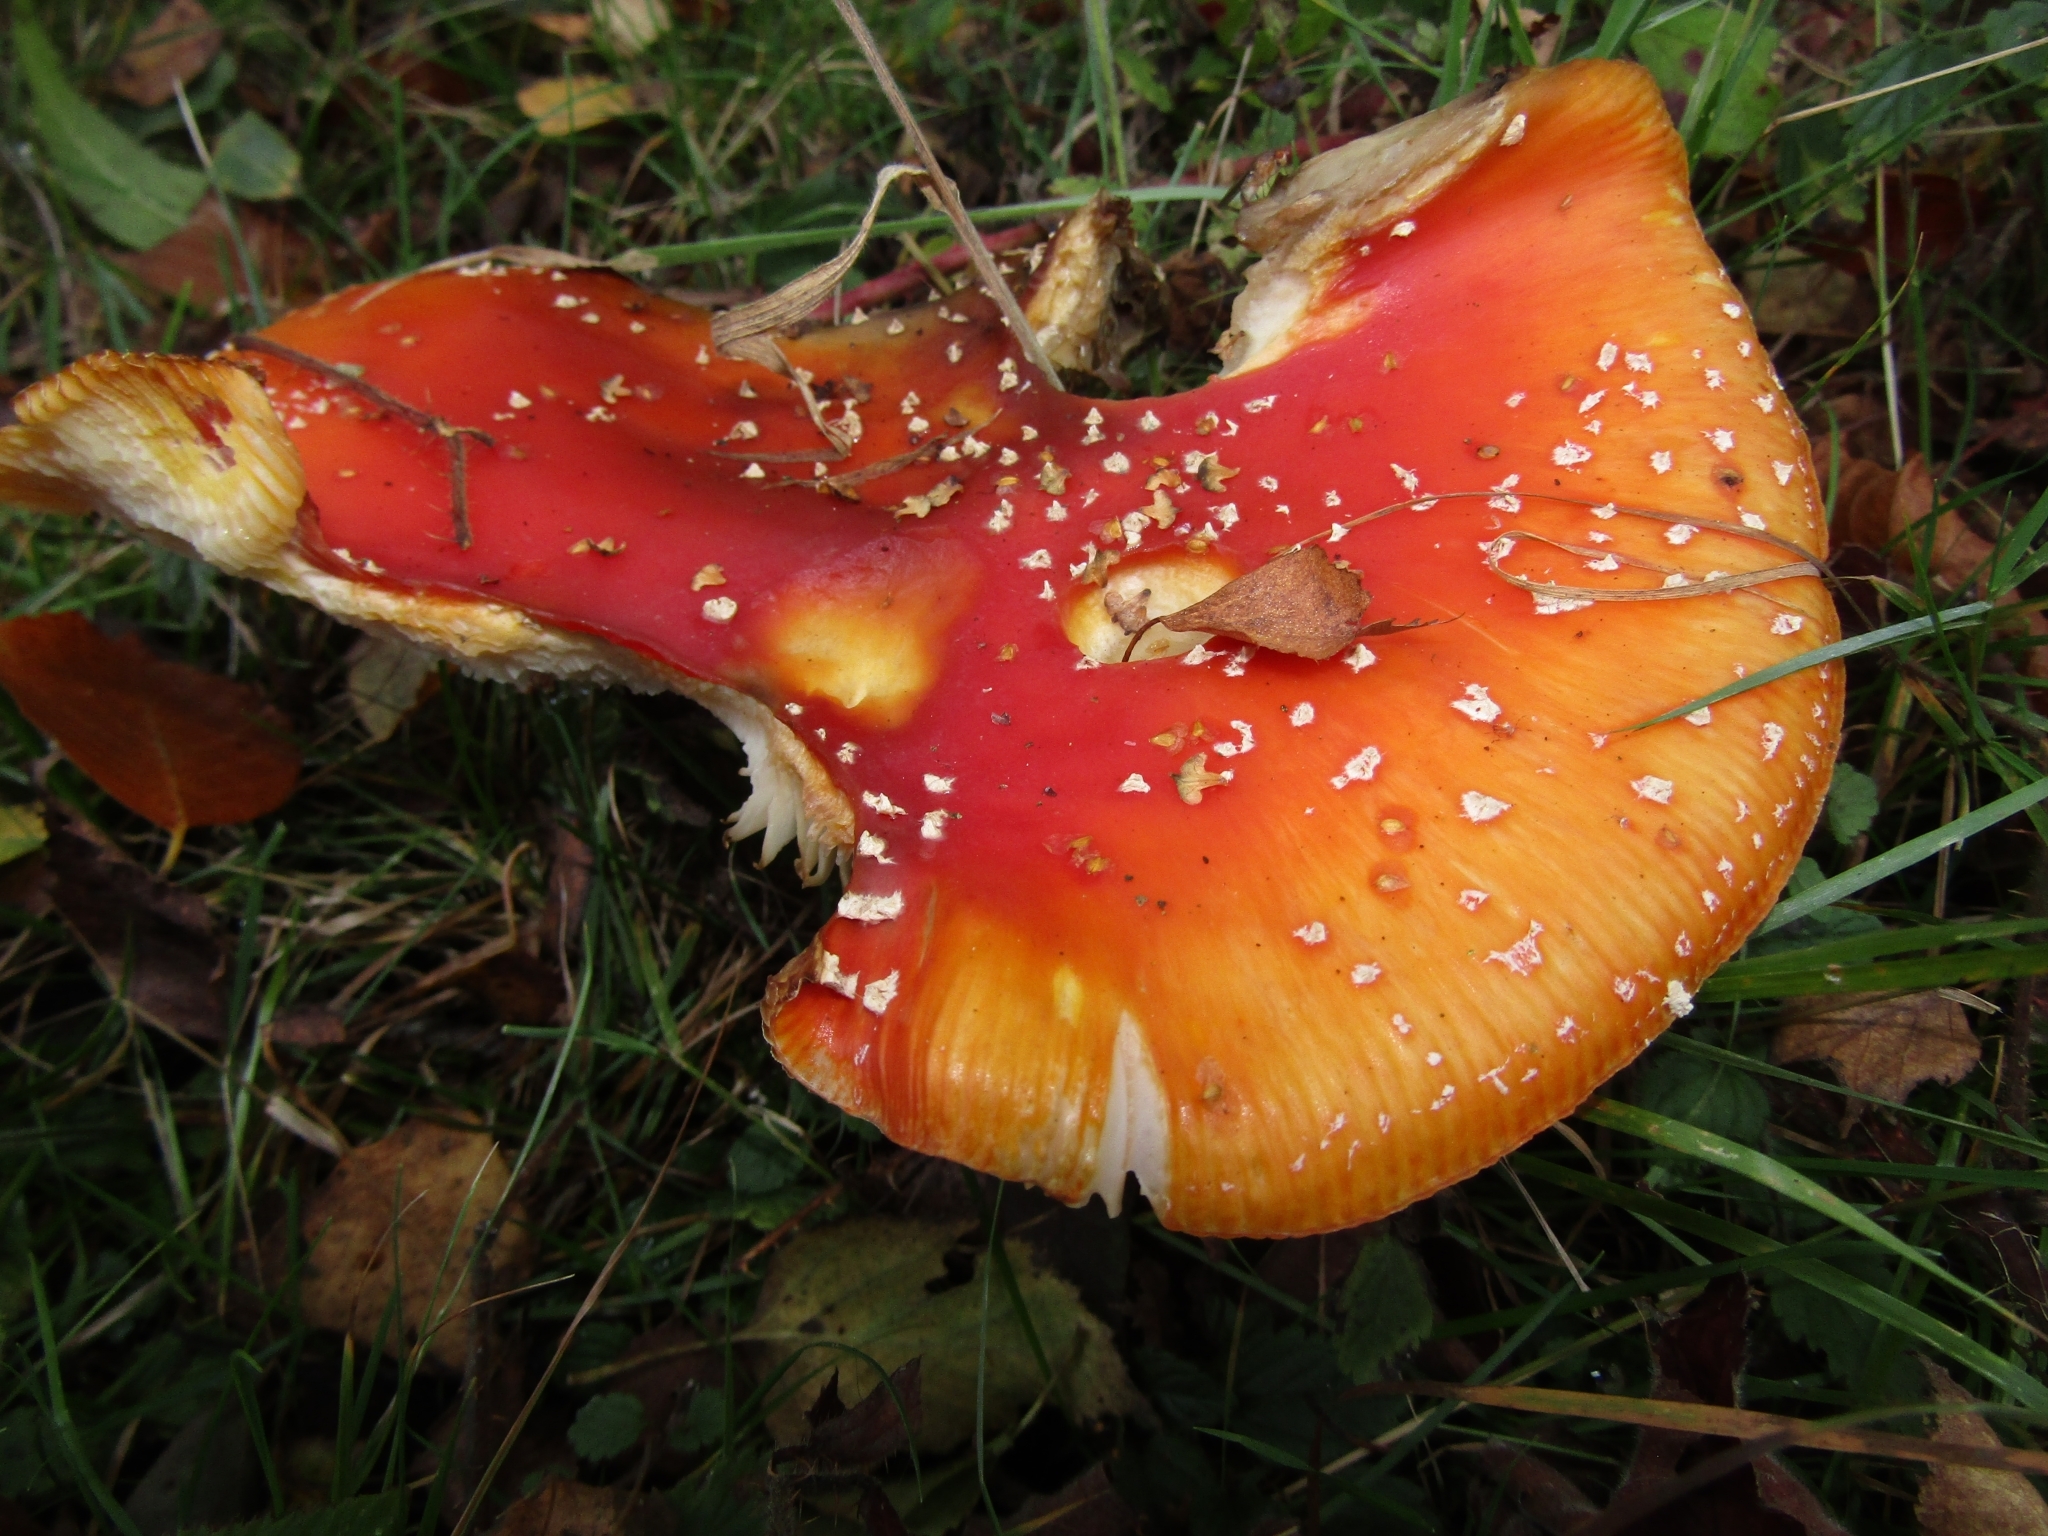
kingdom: Fungi
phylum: Basidiomycota
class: Agaricomycetes
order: Agaricales
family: Amanitaceae
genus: Amanita
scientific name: Amanita muscaria
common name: Fly agaric
